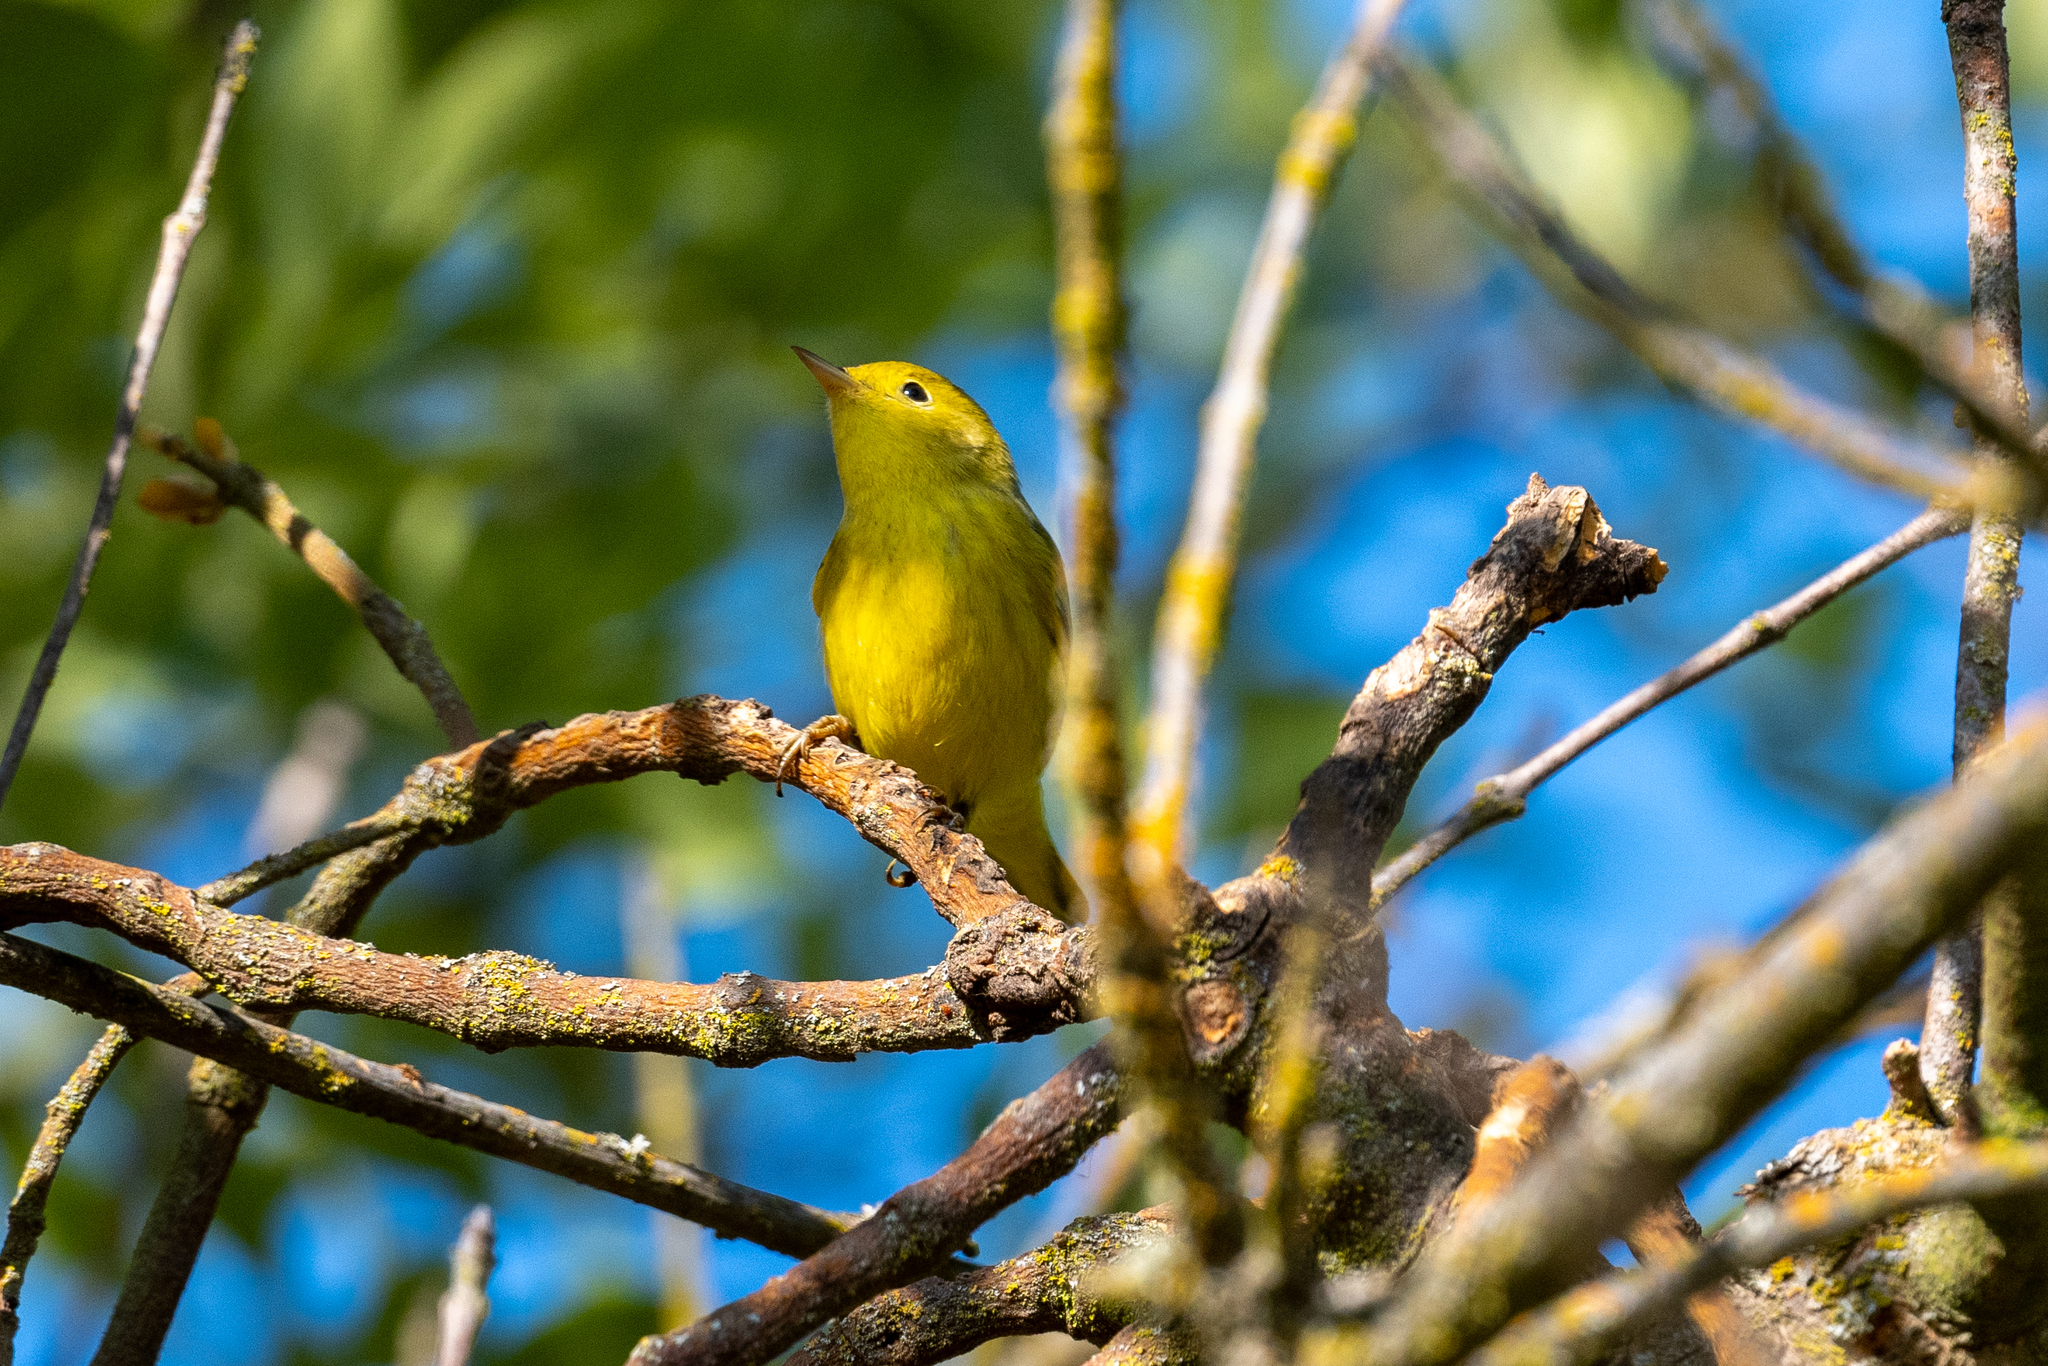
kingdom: Animalia
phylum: Chordata
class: Aves
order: Passeriformes
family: Parulidae
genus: Setophaga
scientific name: Setophaga petechia
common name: Yellow warbler
